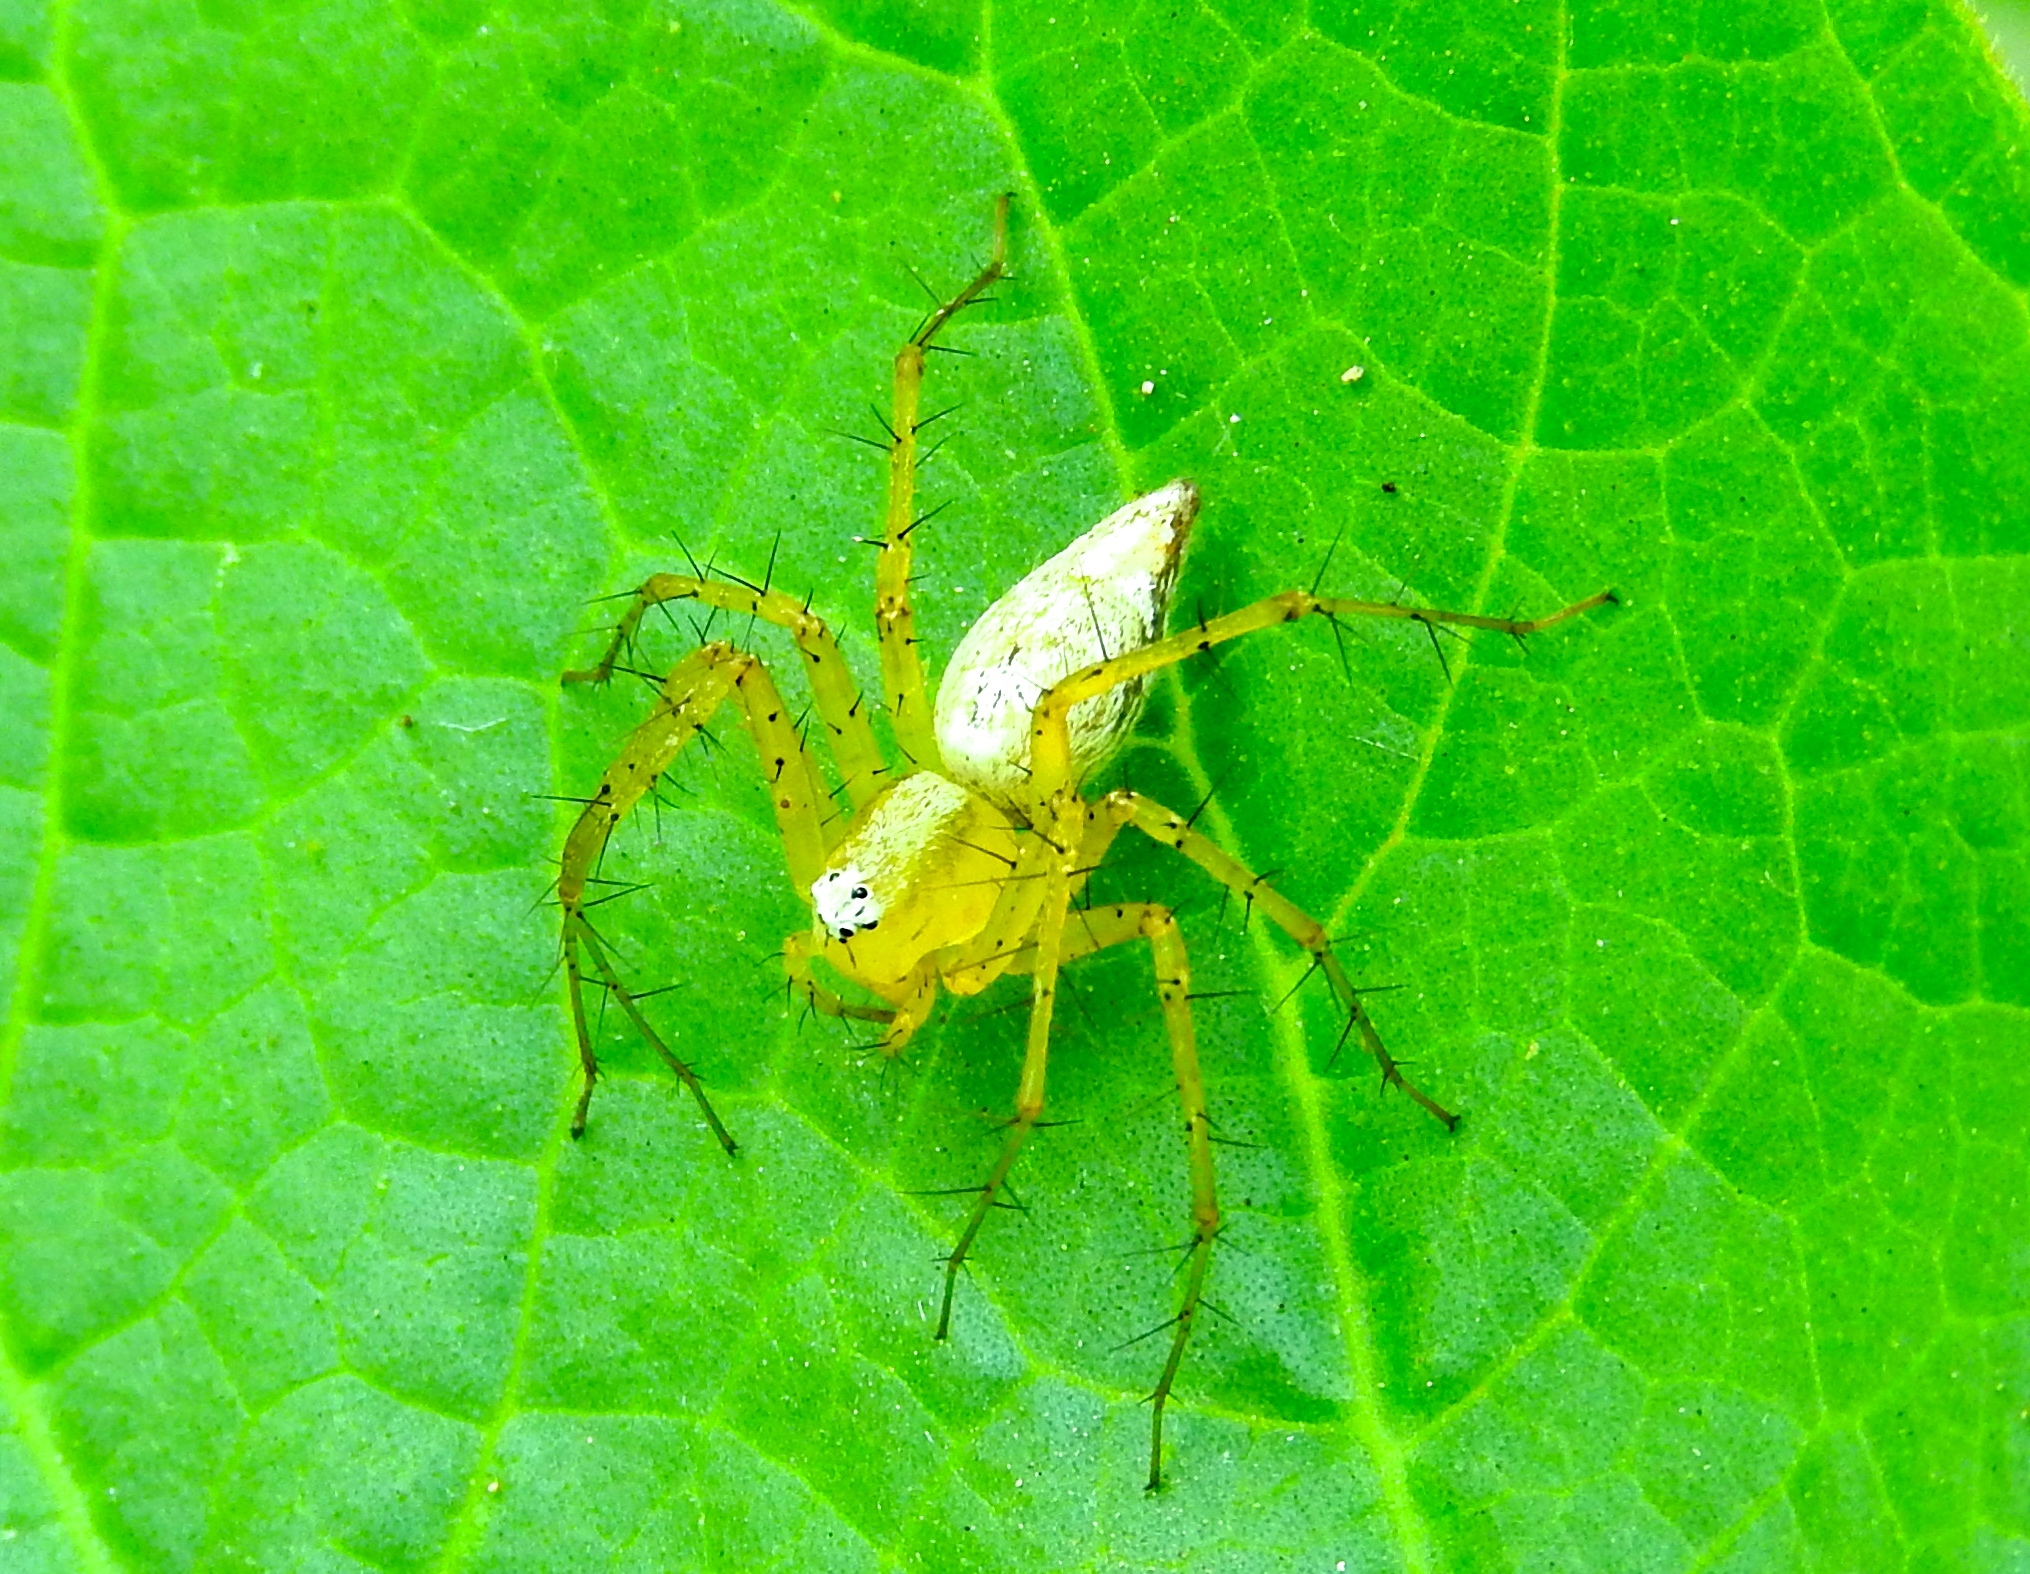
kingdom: Animalia
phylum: Arthropoda
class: Arachnida
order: Araneae
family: Oxyopidae
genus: Oxyopes
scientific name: Oxyopes
